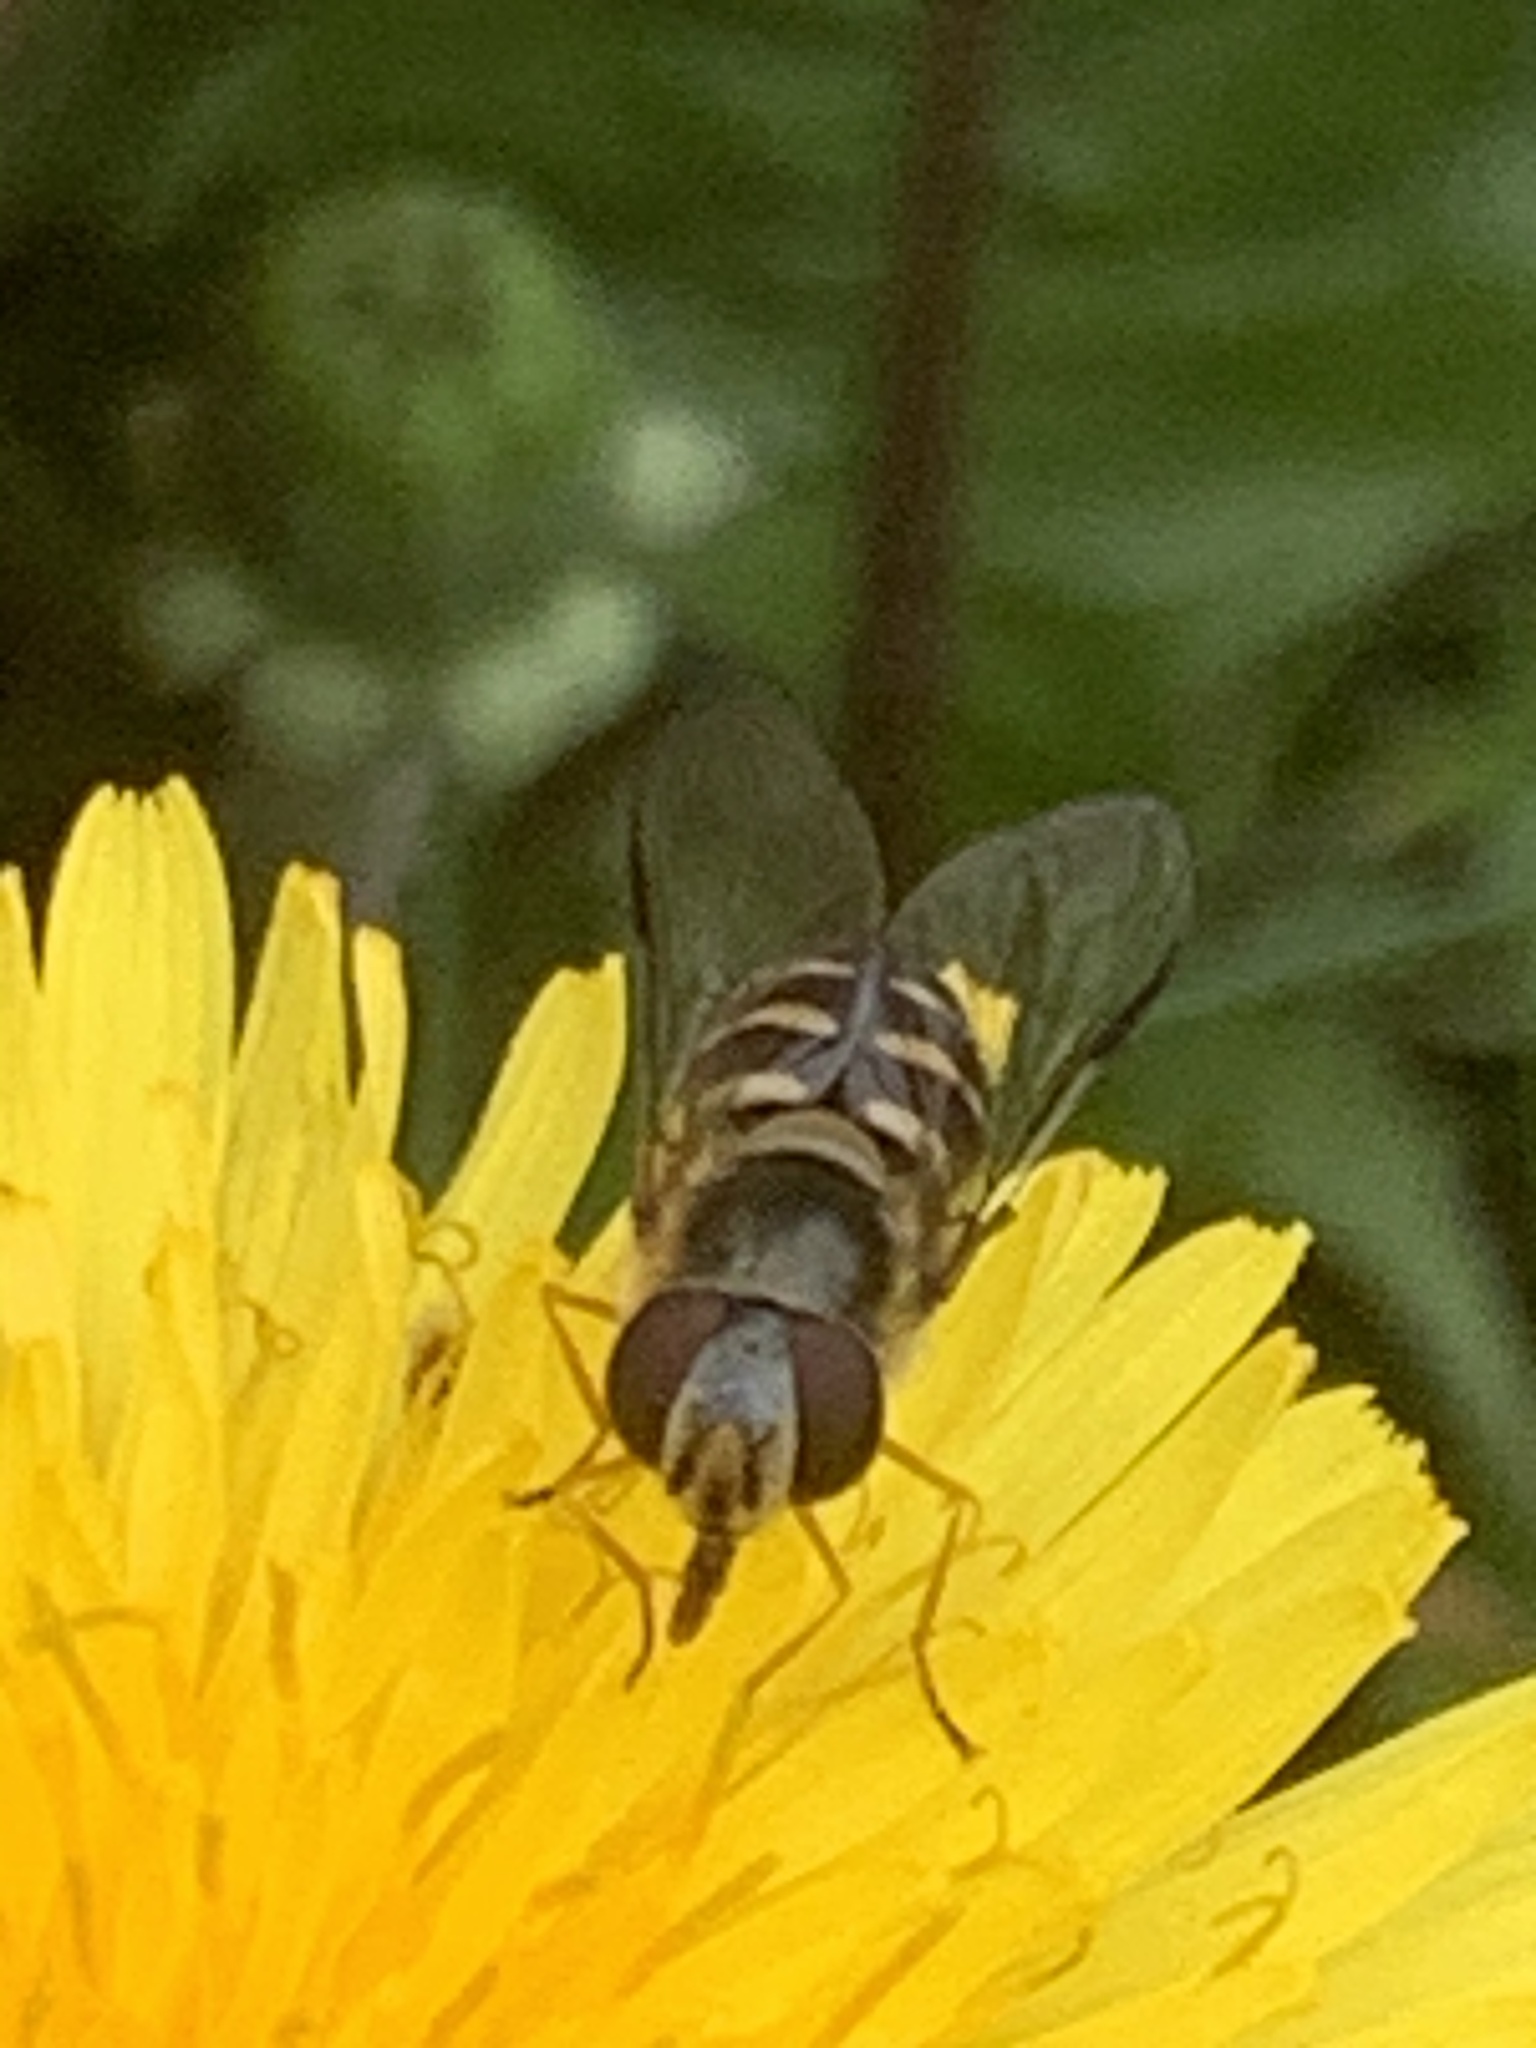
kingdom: Animalia
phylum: Arthropoda
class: Insecta
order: Diptera
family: Syrphidae
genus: Lapposyrphus
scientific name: Lapposyrphus lapponicus
